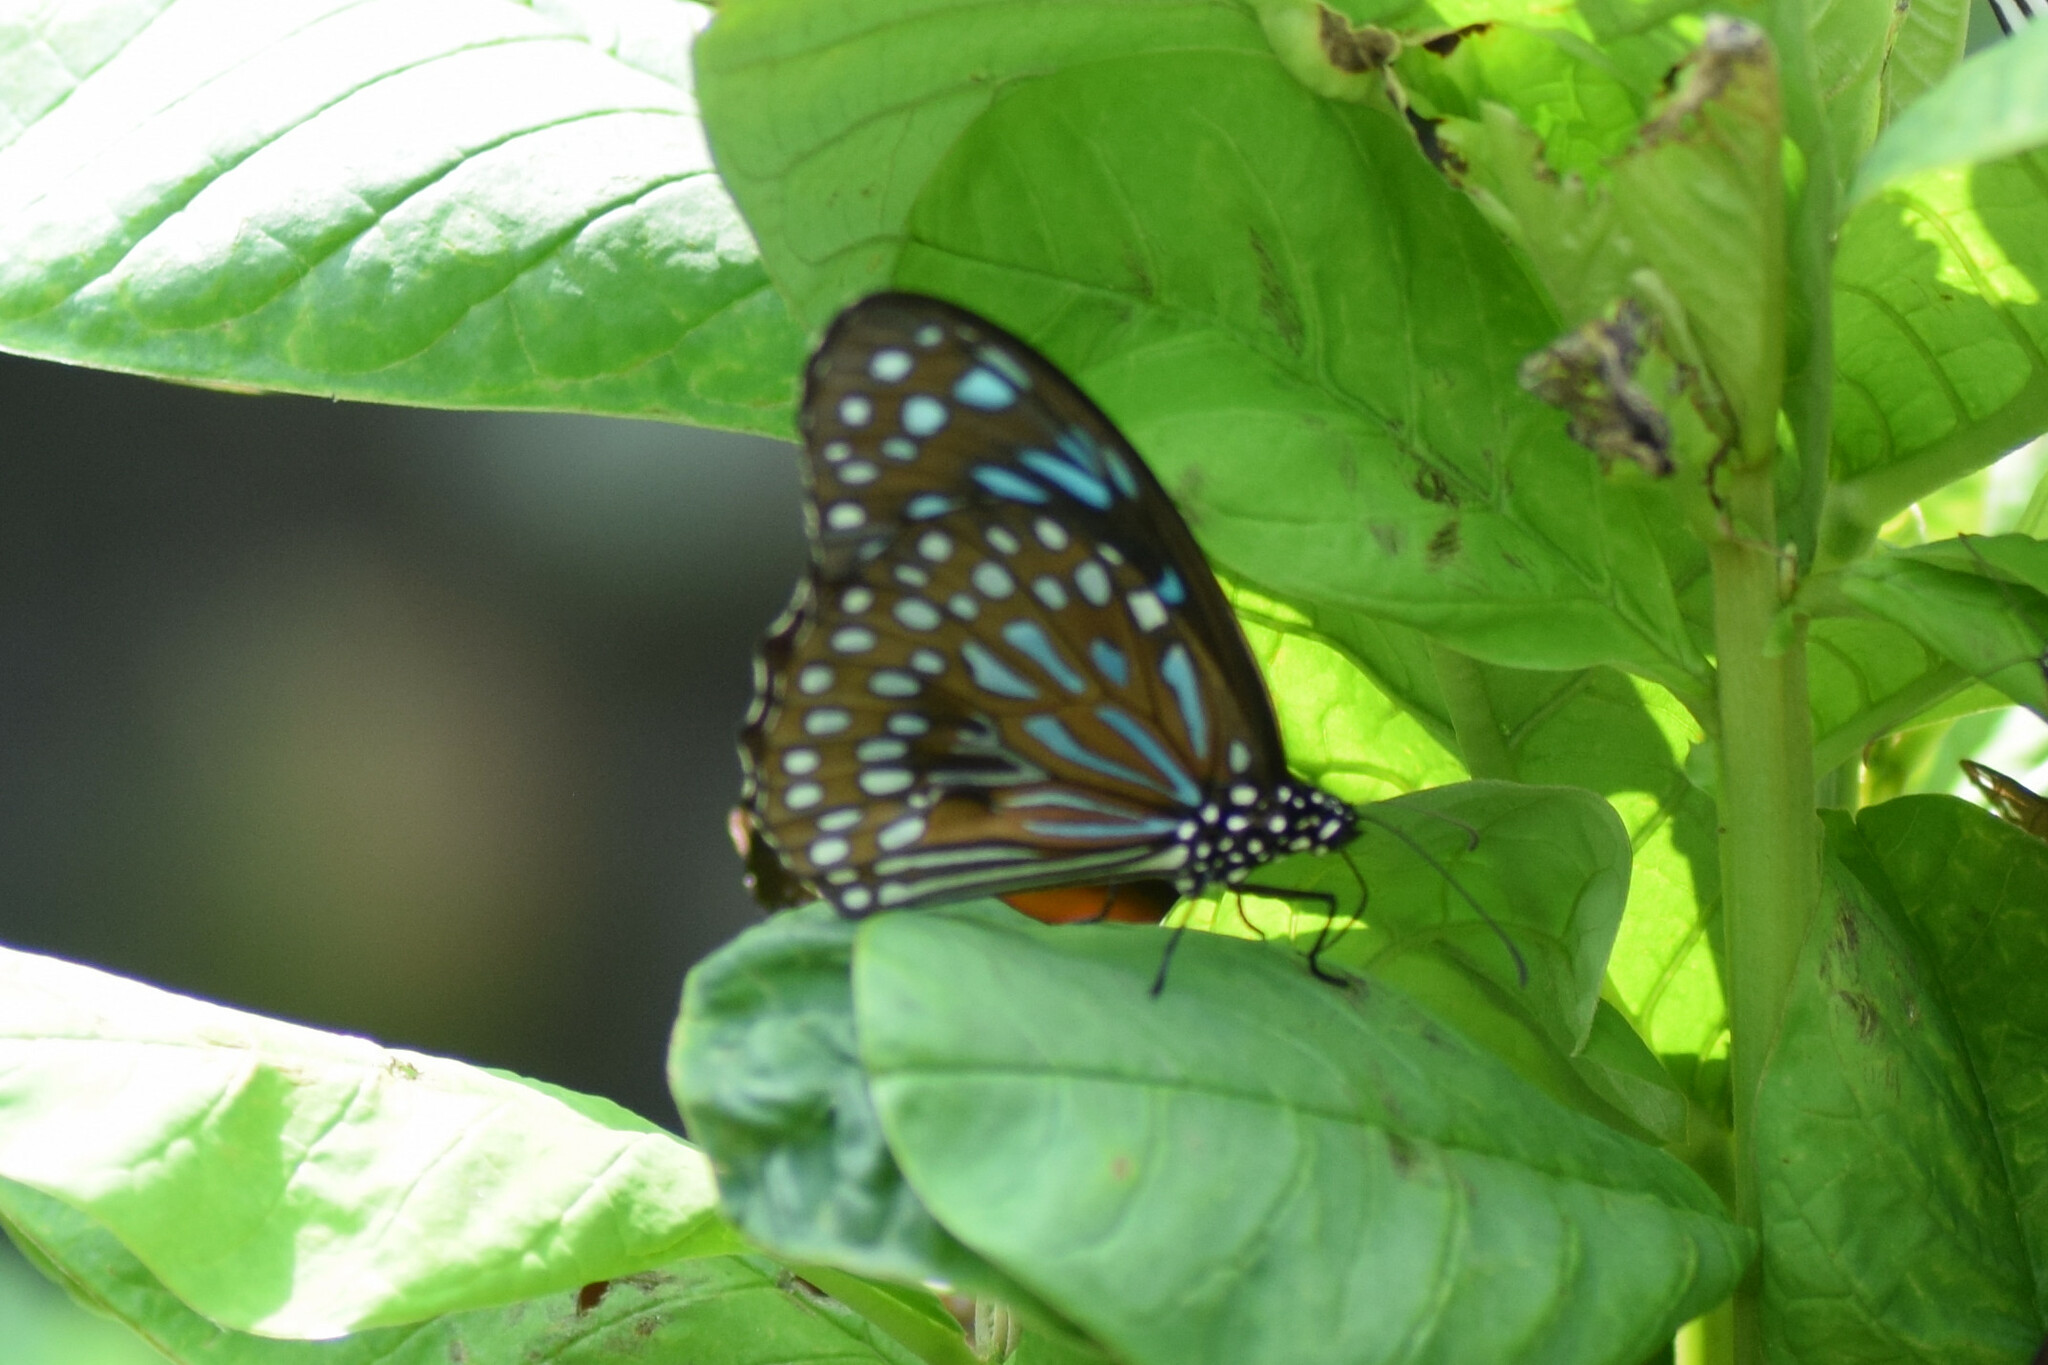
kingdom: Animalia
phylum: Arthropoda
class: Insecta
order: Lepidoptera
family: Nymphalidae
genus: Tirumala
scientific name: Tirumala septentrionis
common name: Dark blue tiger butterfly
